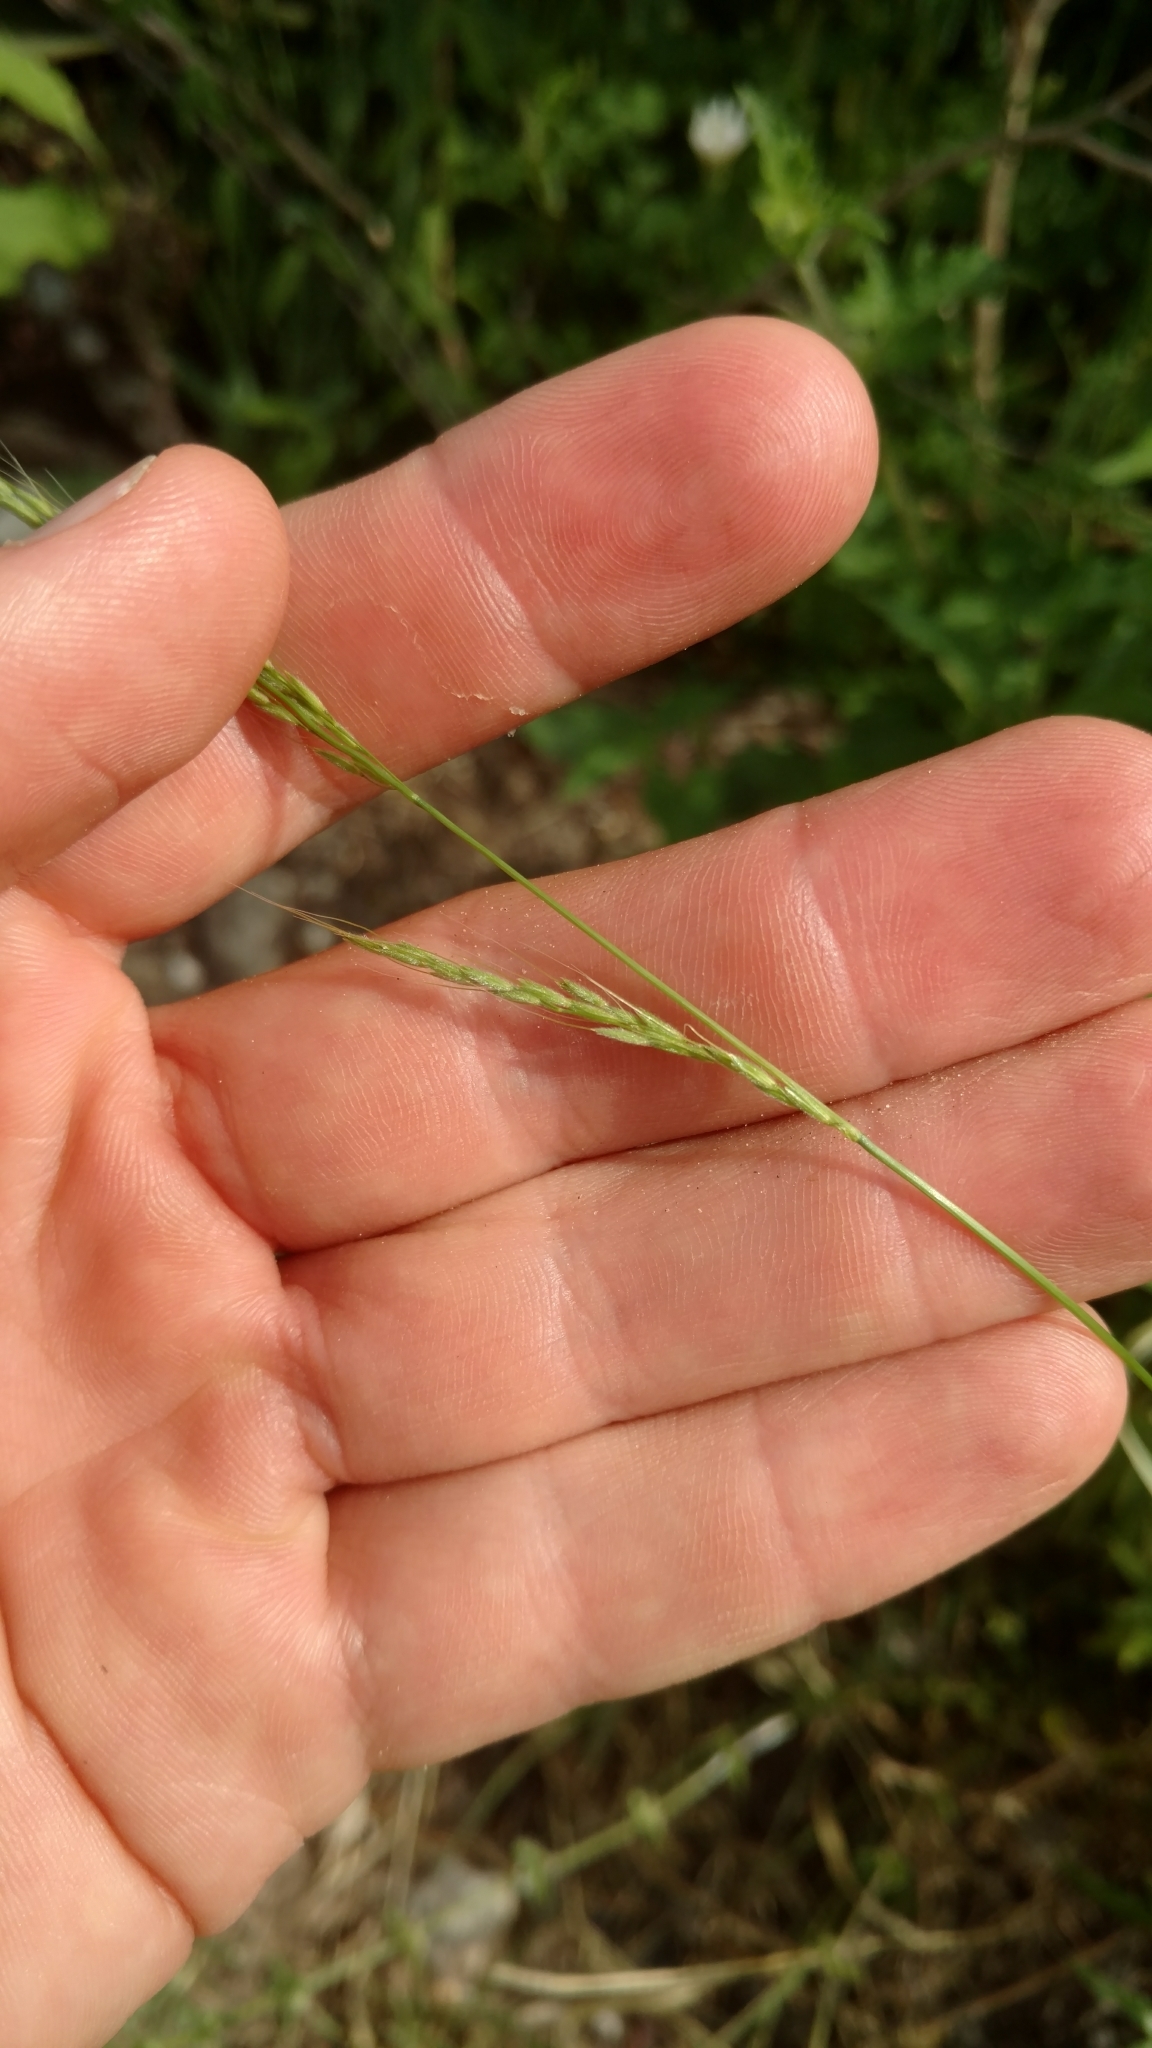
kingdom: Plantae
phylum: Tracheophyta
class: Liliopsida
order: Poales
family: Poaceae
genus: Limnodea
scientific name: Limnodea arkansana
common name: Ozark-grass
